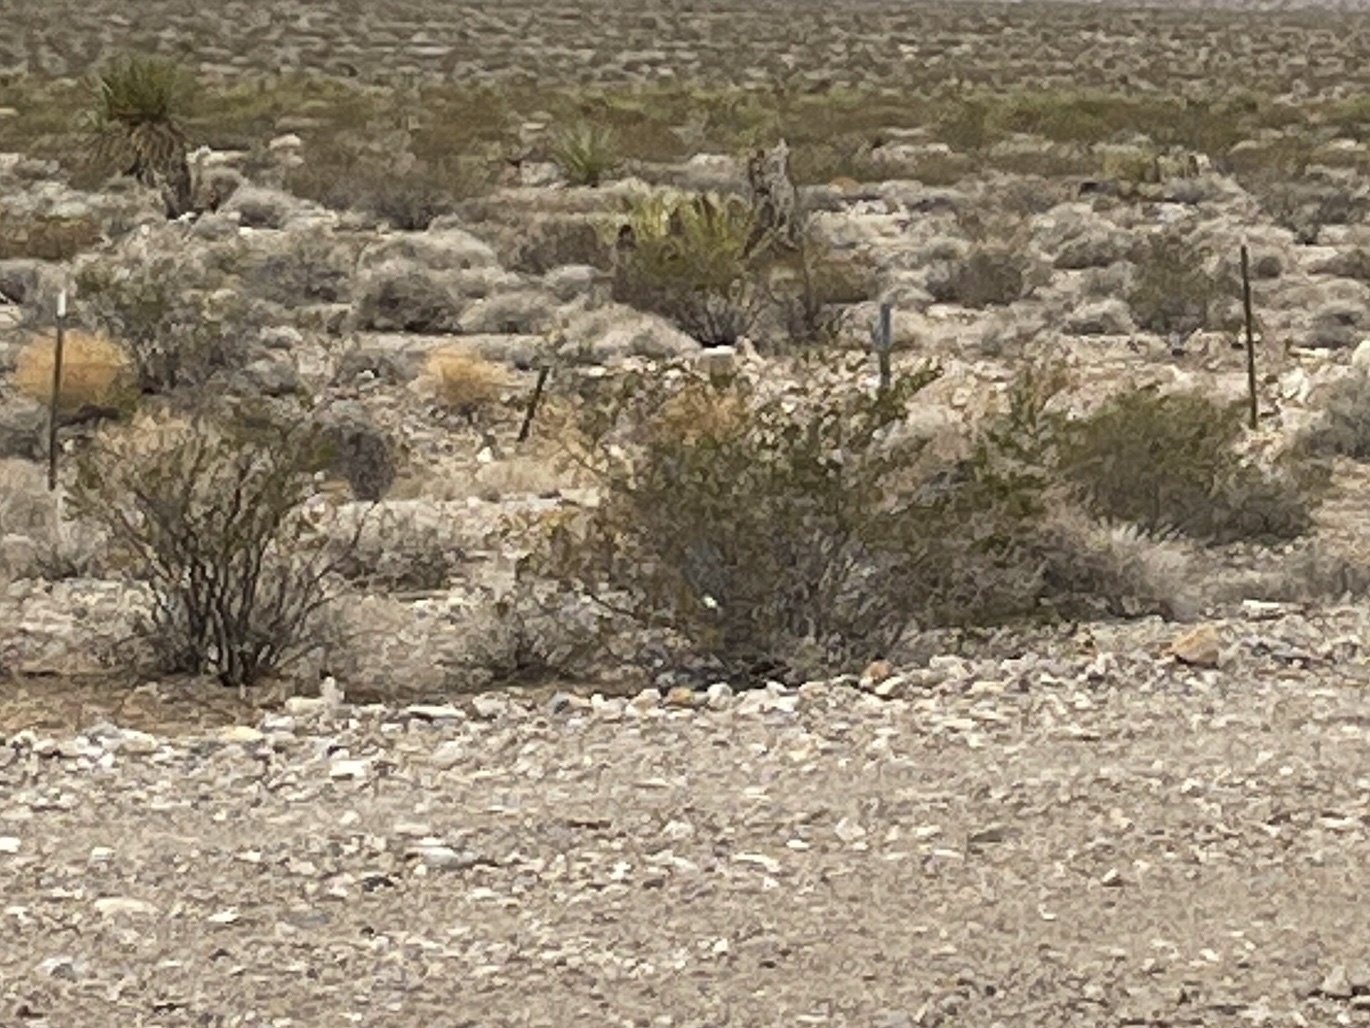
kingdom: Plantae
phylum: Tracheophyta
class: Magnoliopsida
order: Zygophyllales
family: Zygophyllaceae
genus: Larrea
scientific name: Larrea tridentata
